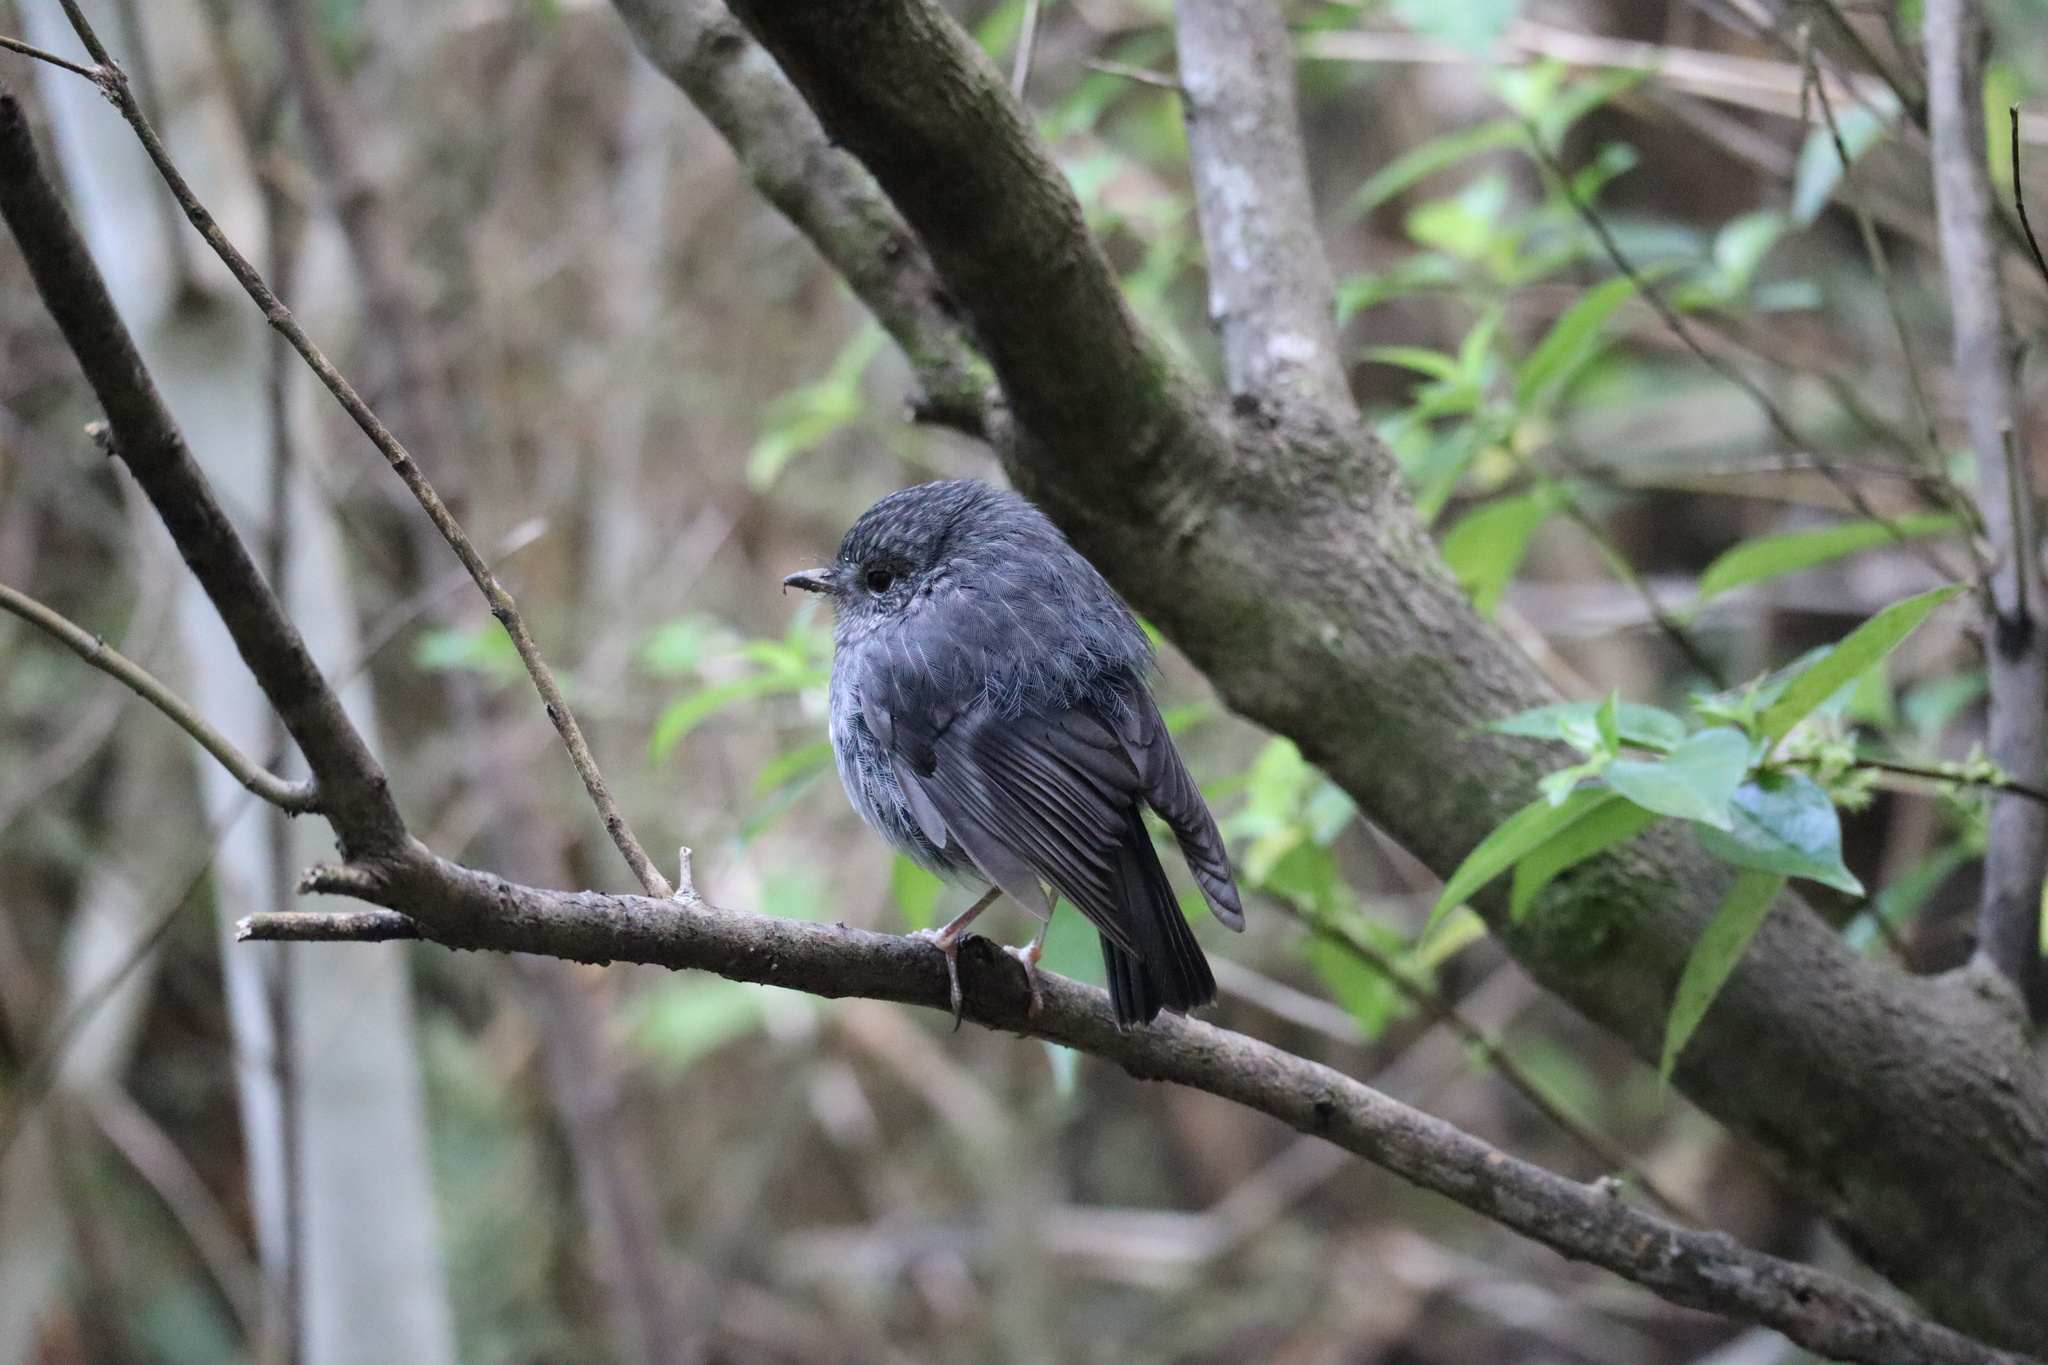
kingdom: Animalia
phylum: Chordata
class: Aves
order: Passeriformes
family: Petroicidae
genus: Petroica
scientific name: Petroica australis
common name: New zealand robin
